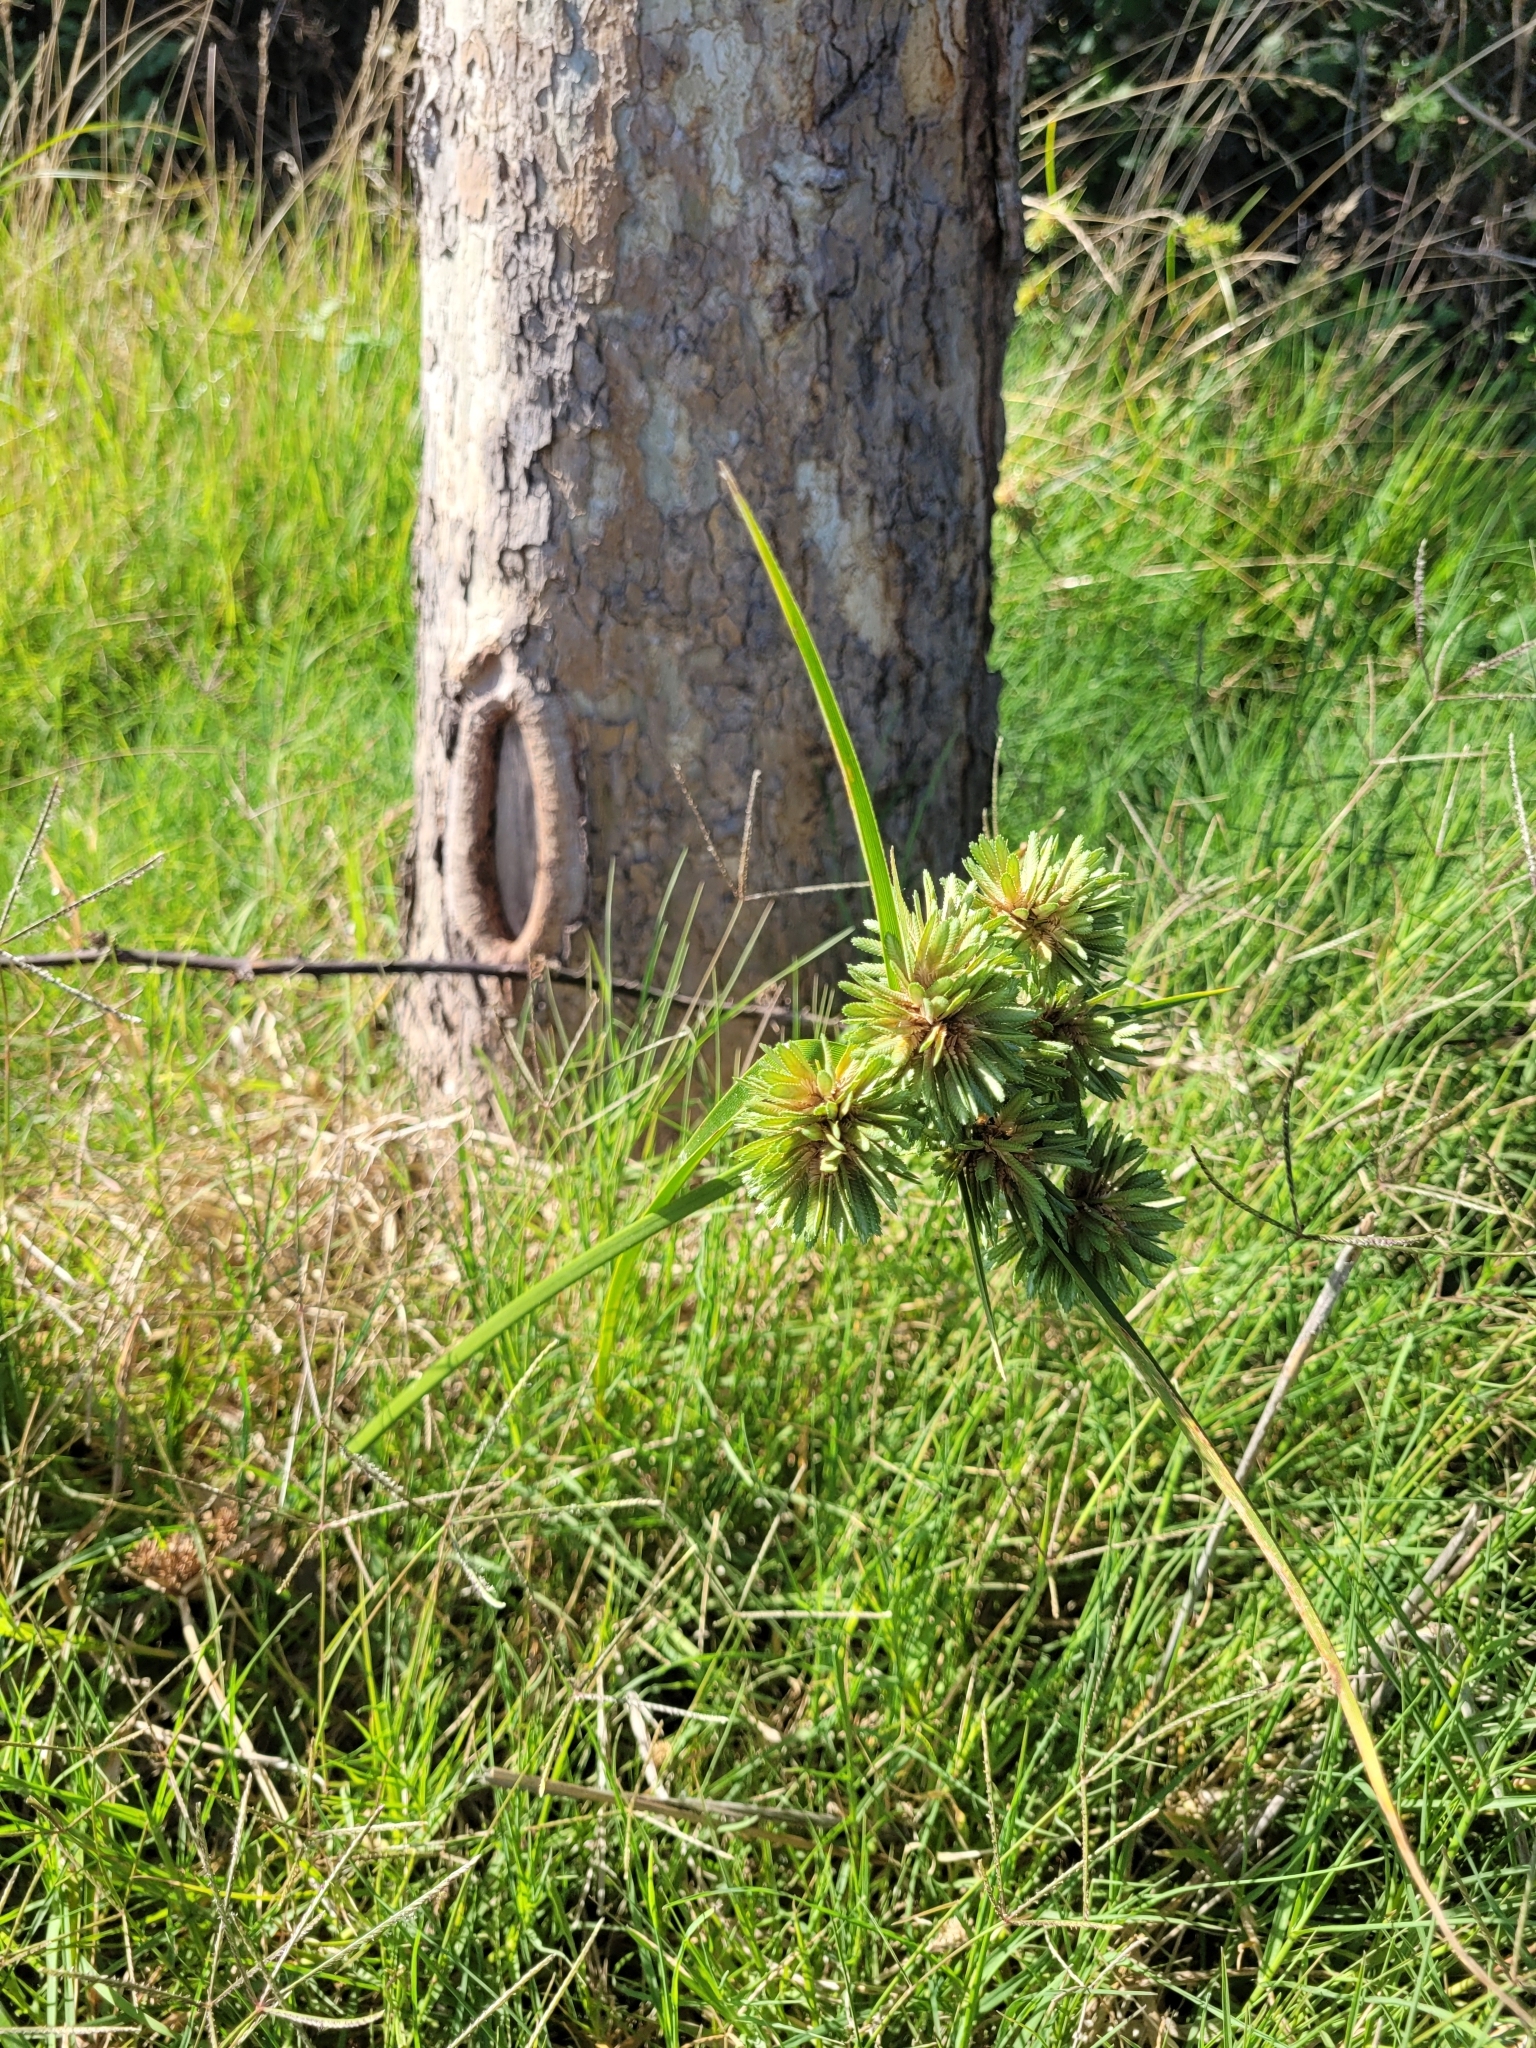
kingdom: Plantae
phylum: Tracheophyta
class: Liliopsida
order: Poales
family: Cyperaceae
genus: Cyperus
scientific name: Cyperus eragrostis
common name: Tall flatsedge
